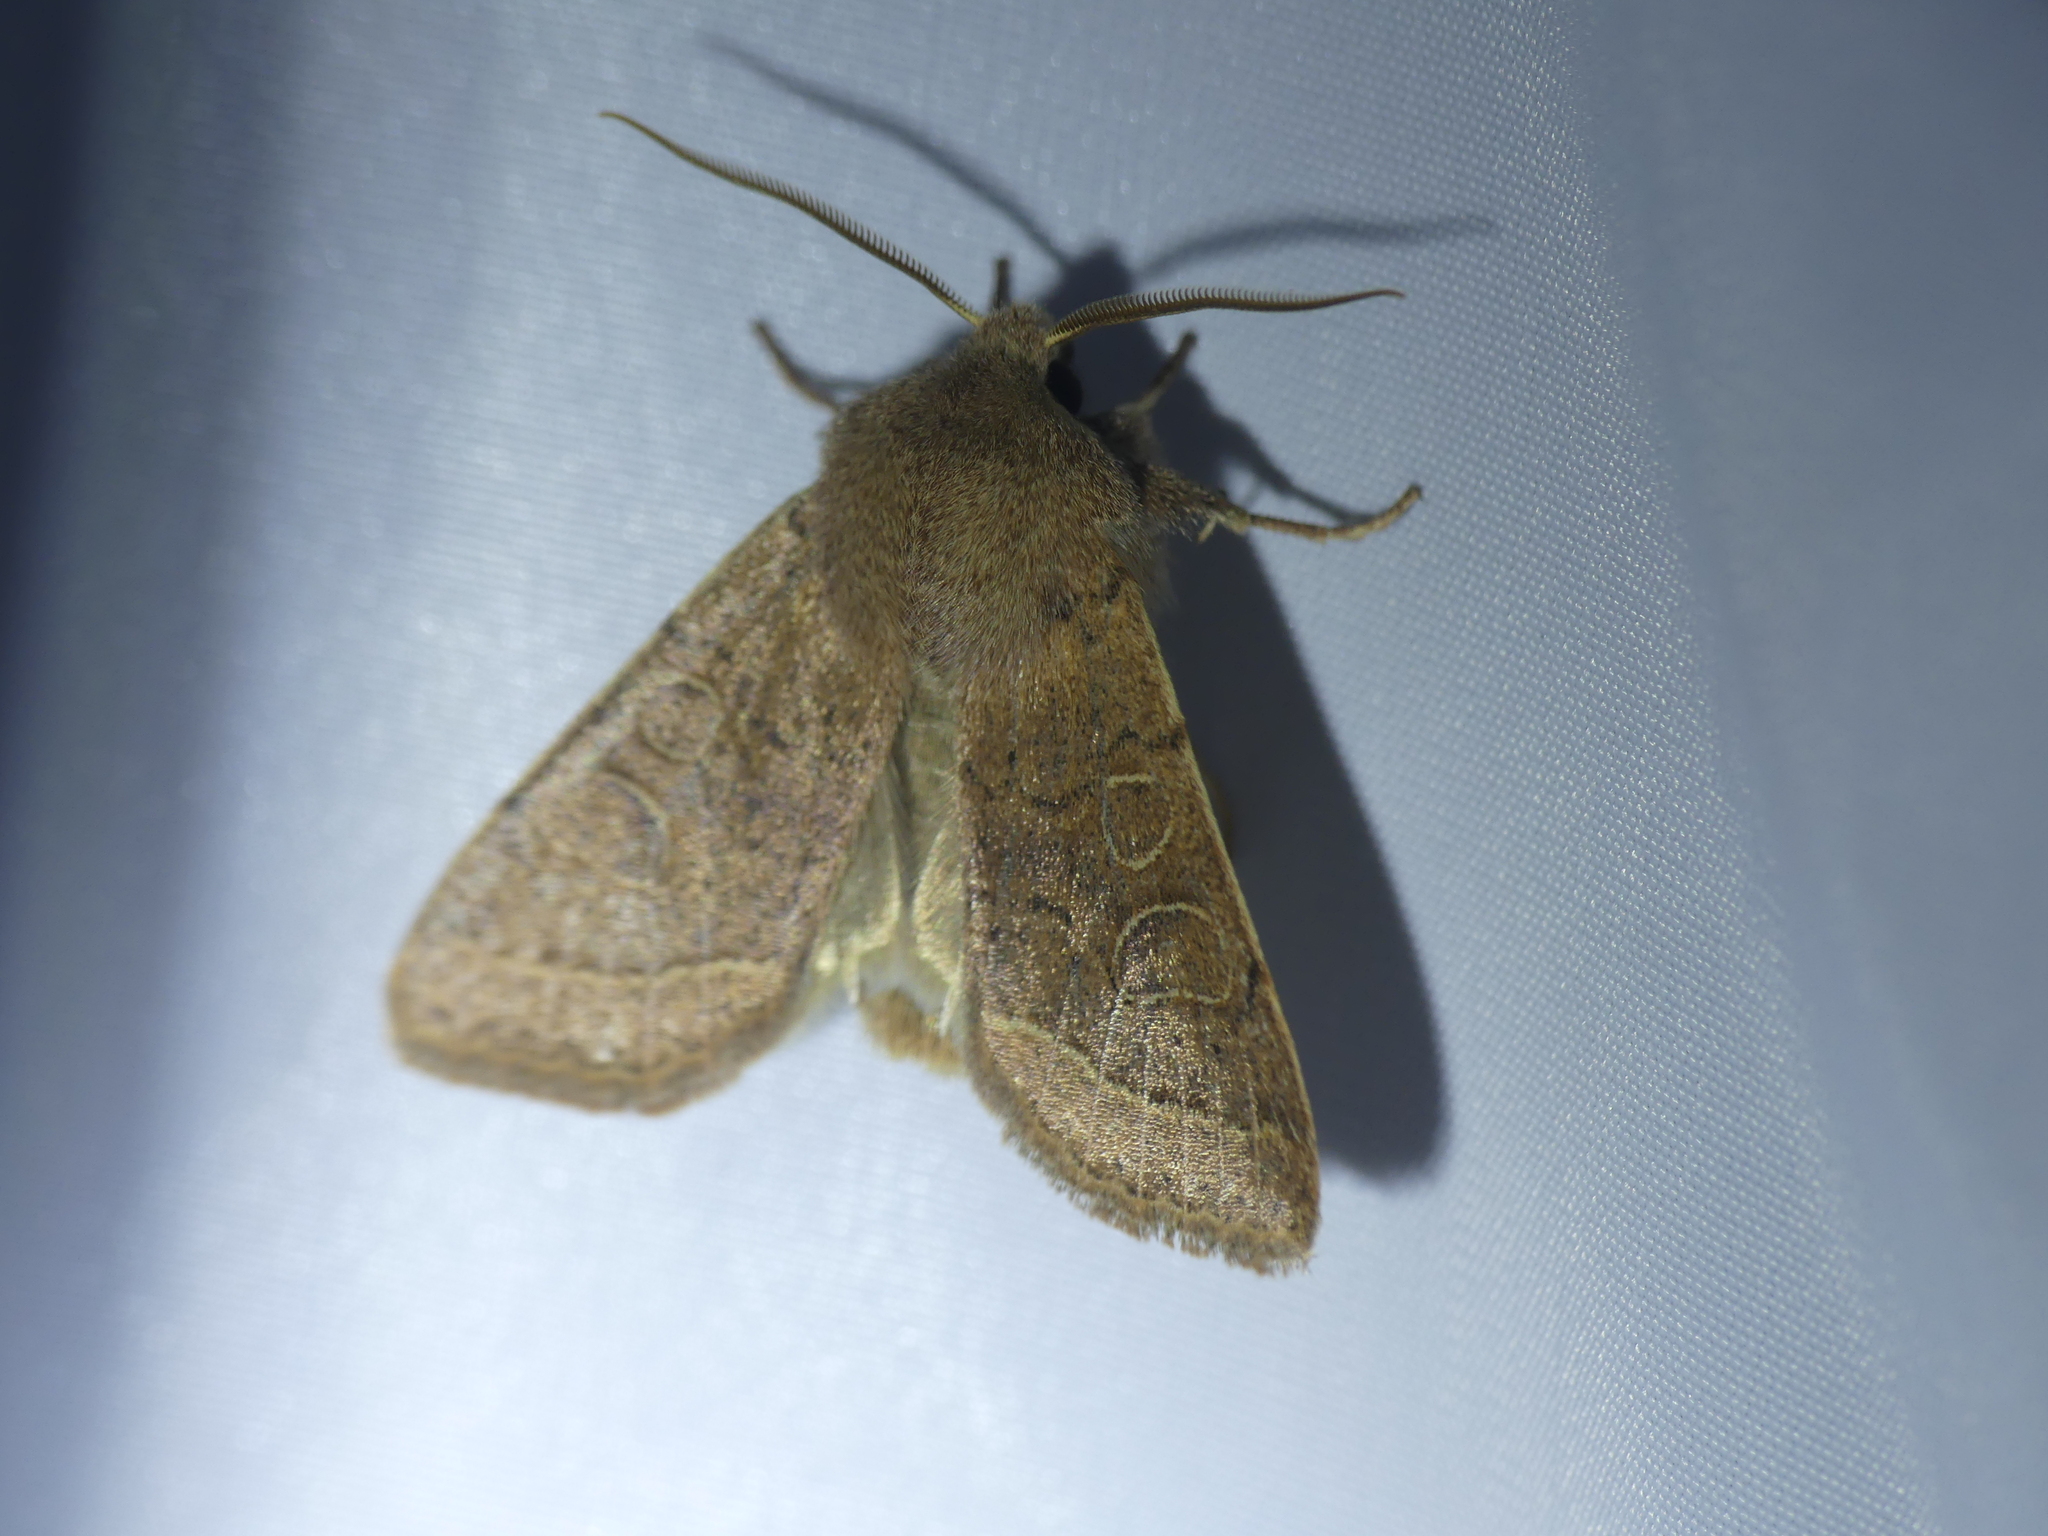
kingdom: Animalia
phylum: Arthropoda
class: Insecta
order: Lepidoptera
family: Noctuidae
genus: Orthosia
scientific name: Orthosia cerasi
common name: Common quaker
